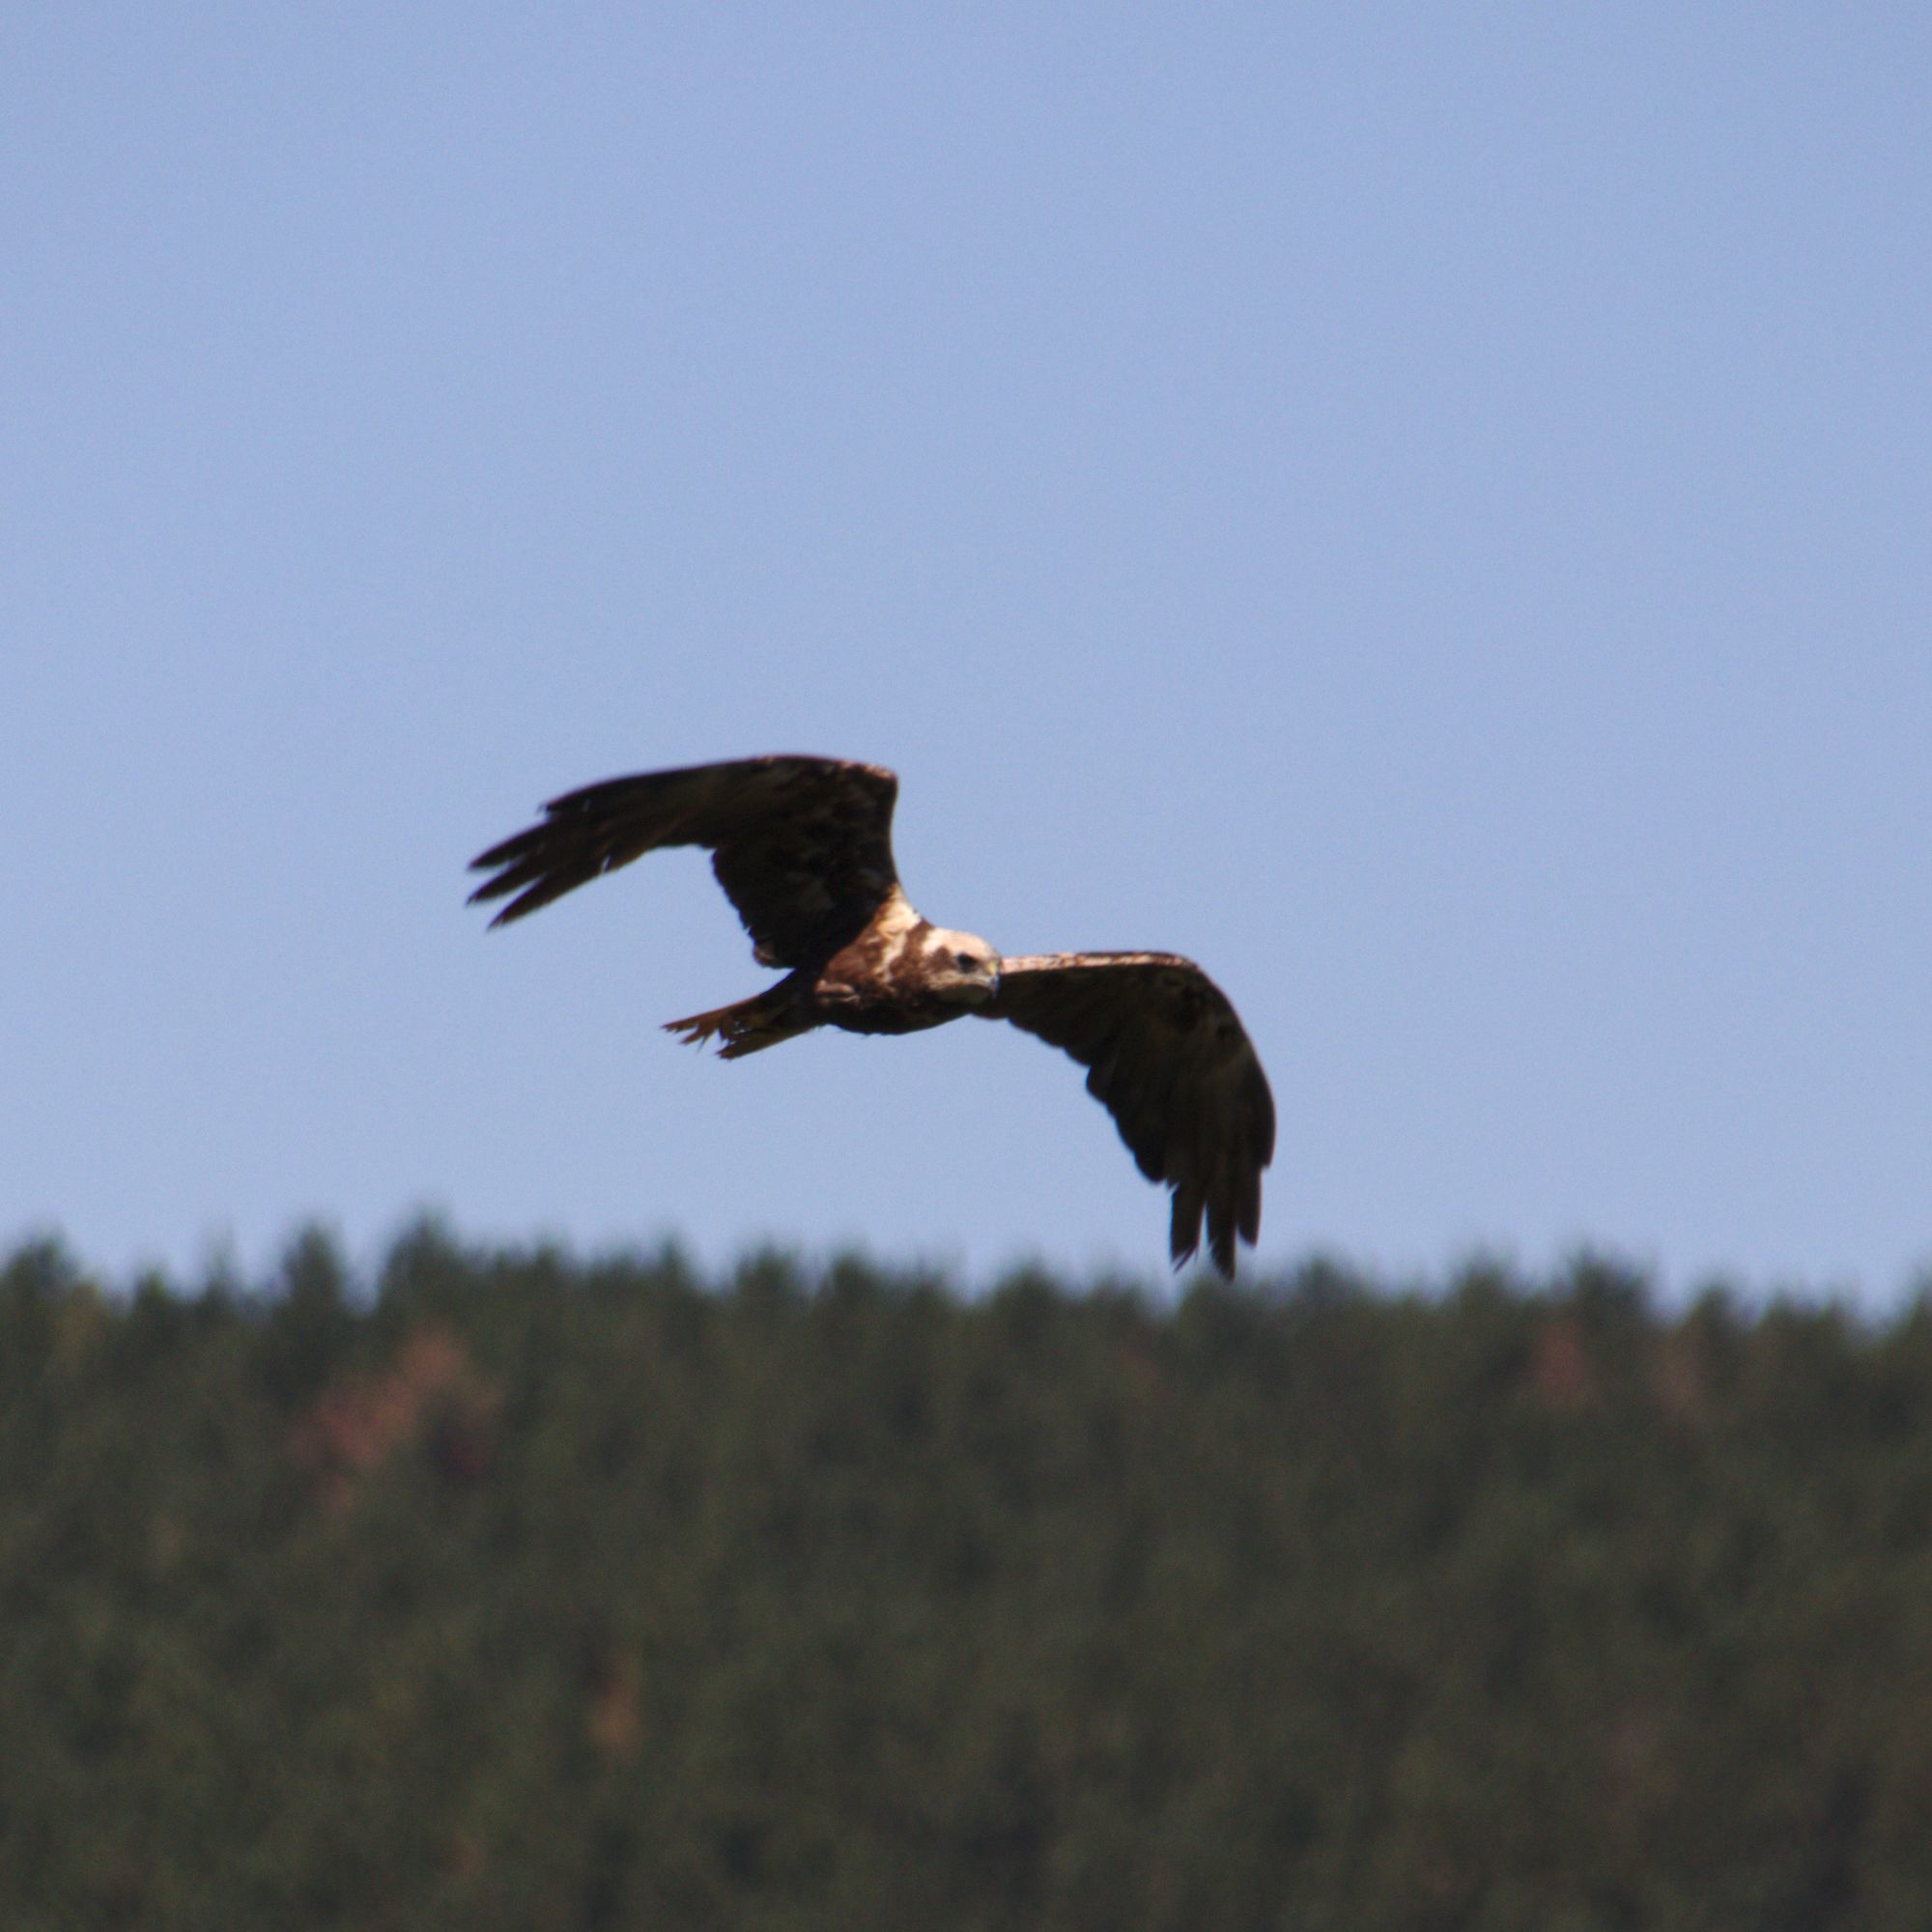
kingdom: Animalia
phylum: Chordata
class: Aves
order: Accipitriformes
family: Accipitridae
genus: Circus
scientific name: Circus aeruginosus
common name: Western marsh harrier
